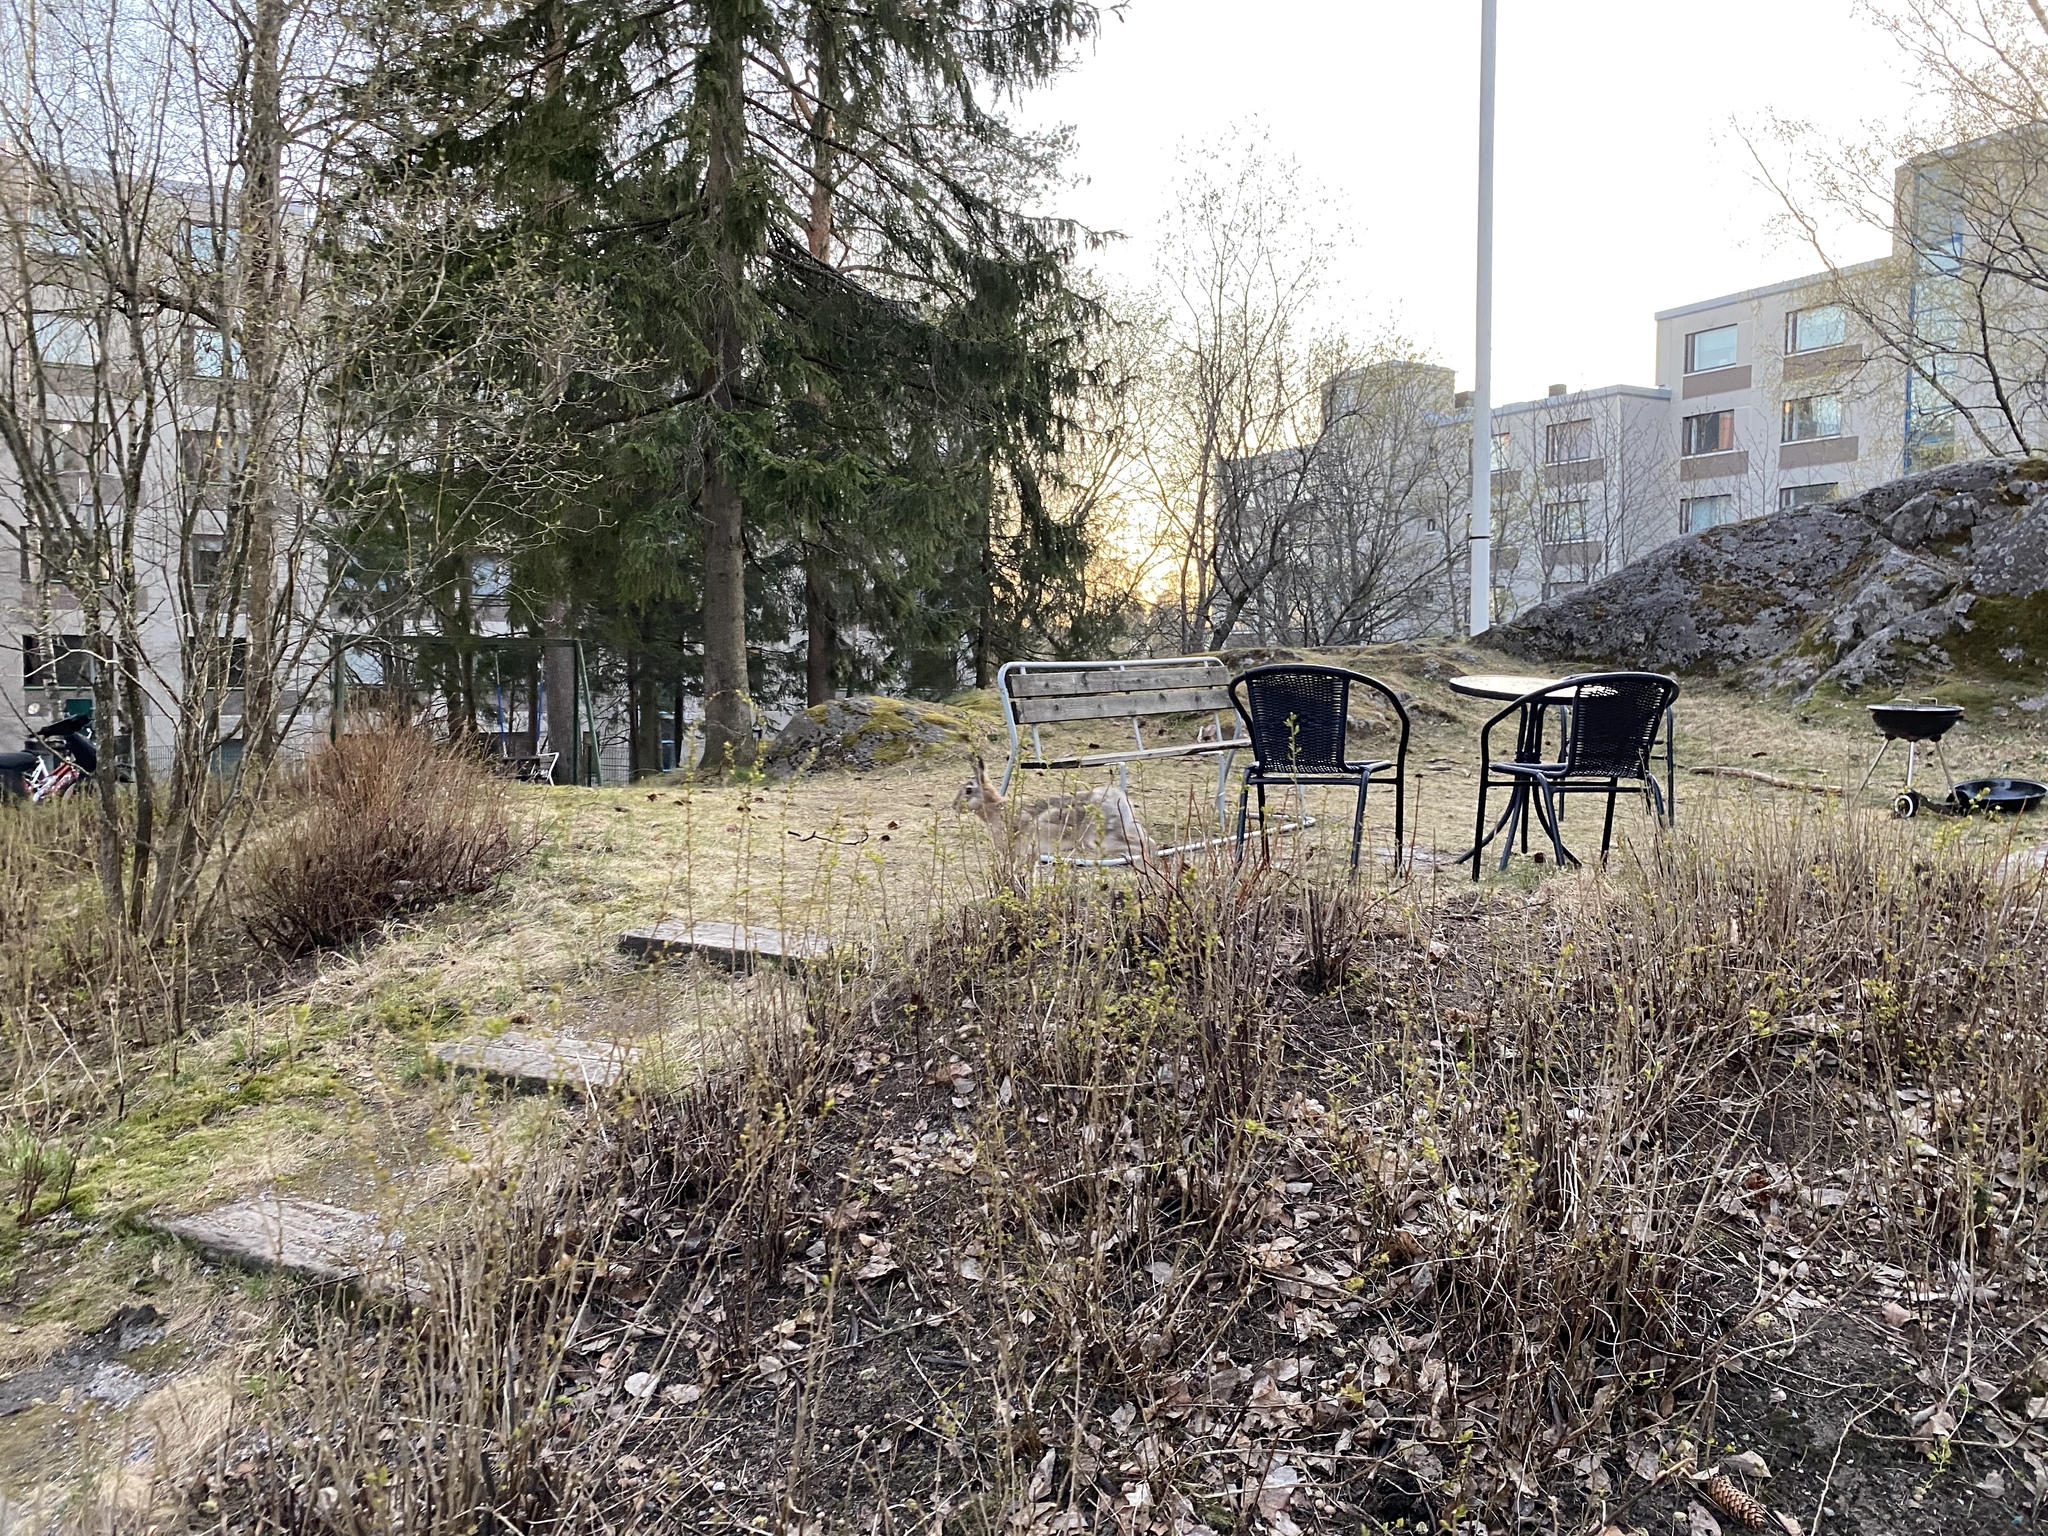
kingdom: Animalia
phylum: Chordata
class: Mammalia
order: Lagomorpha
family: Leporidae
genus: Lepus
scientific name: Lepus europaeus
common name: European hare
